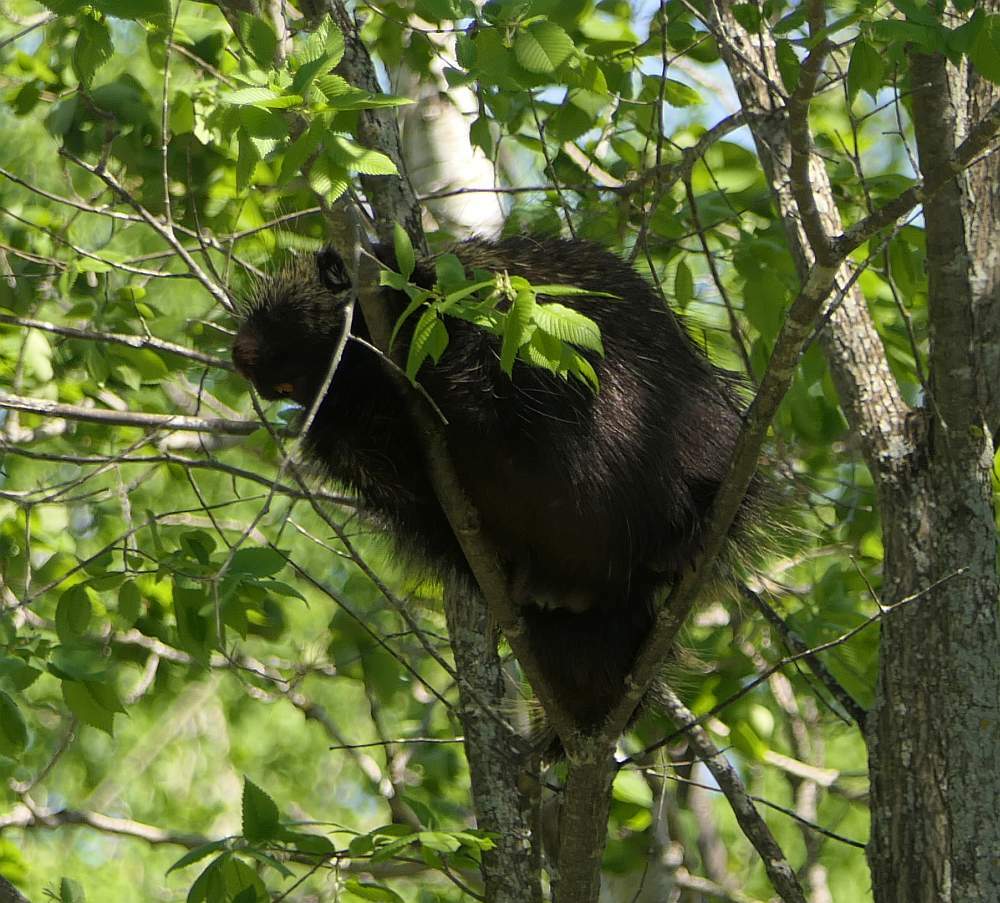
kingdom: Animalia
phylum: Chordata
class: Mammalia
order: Rodentia
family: Erethizontidae
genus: Erethizon
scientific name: Erethizon dorsatus
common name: North american porcupine
